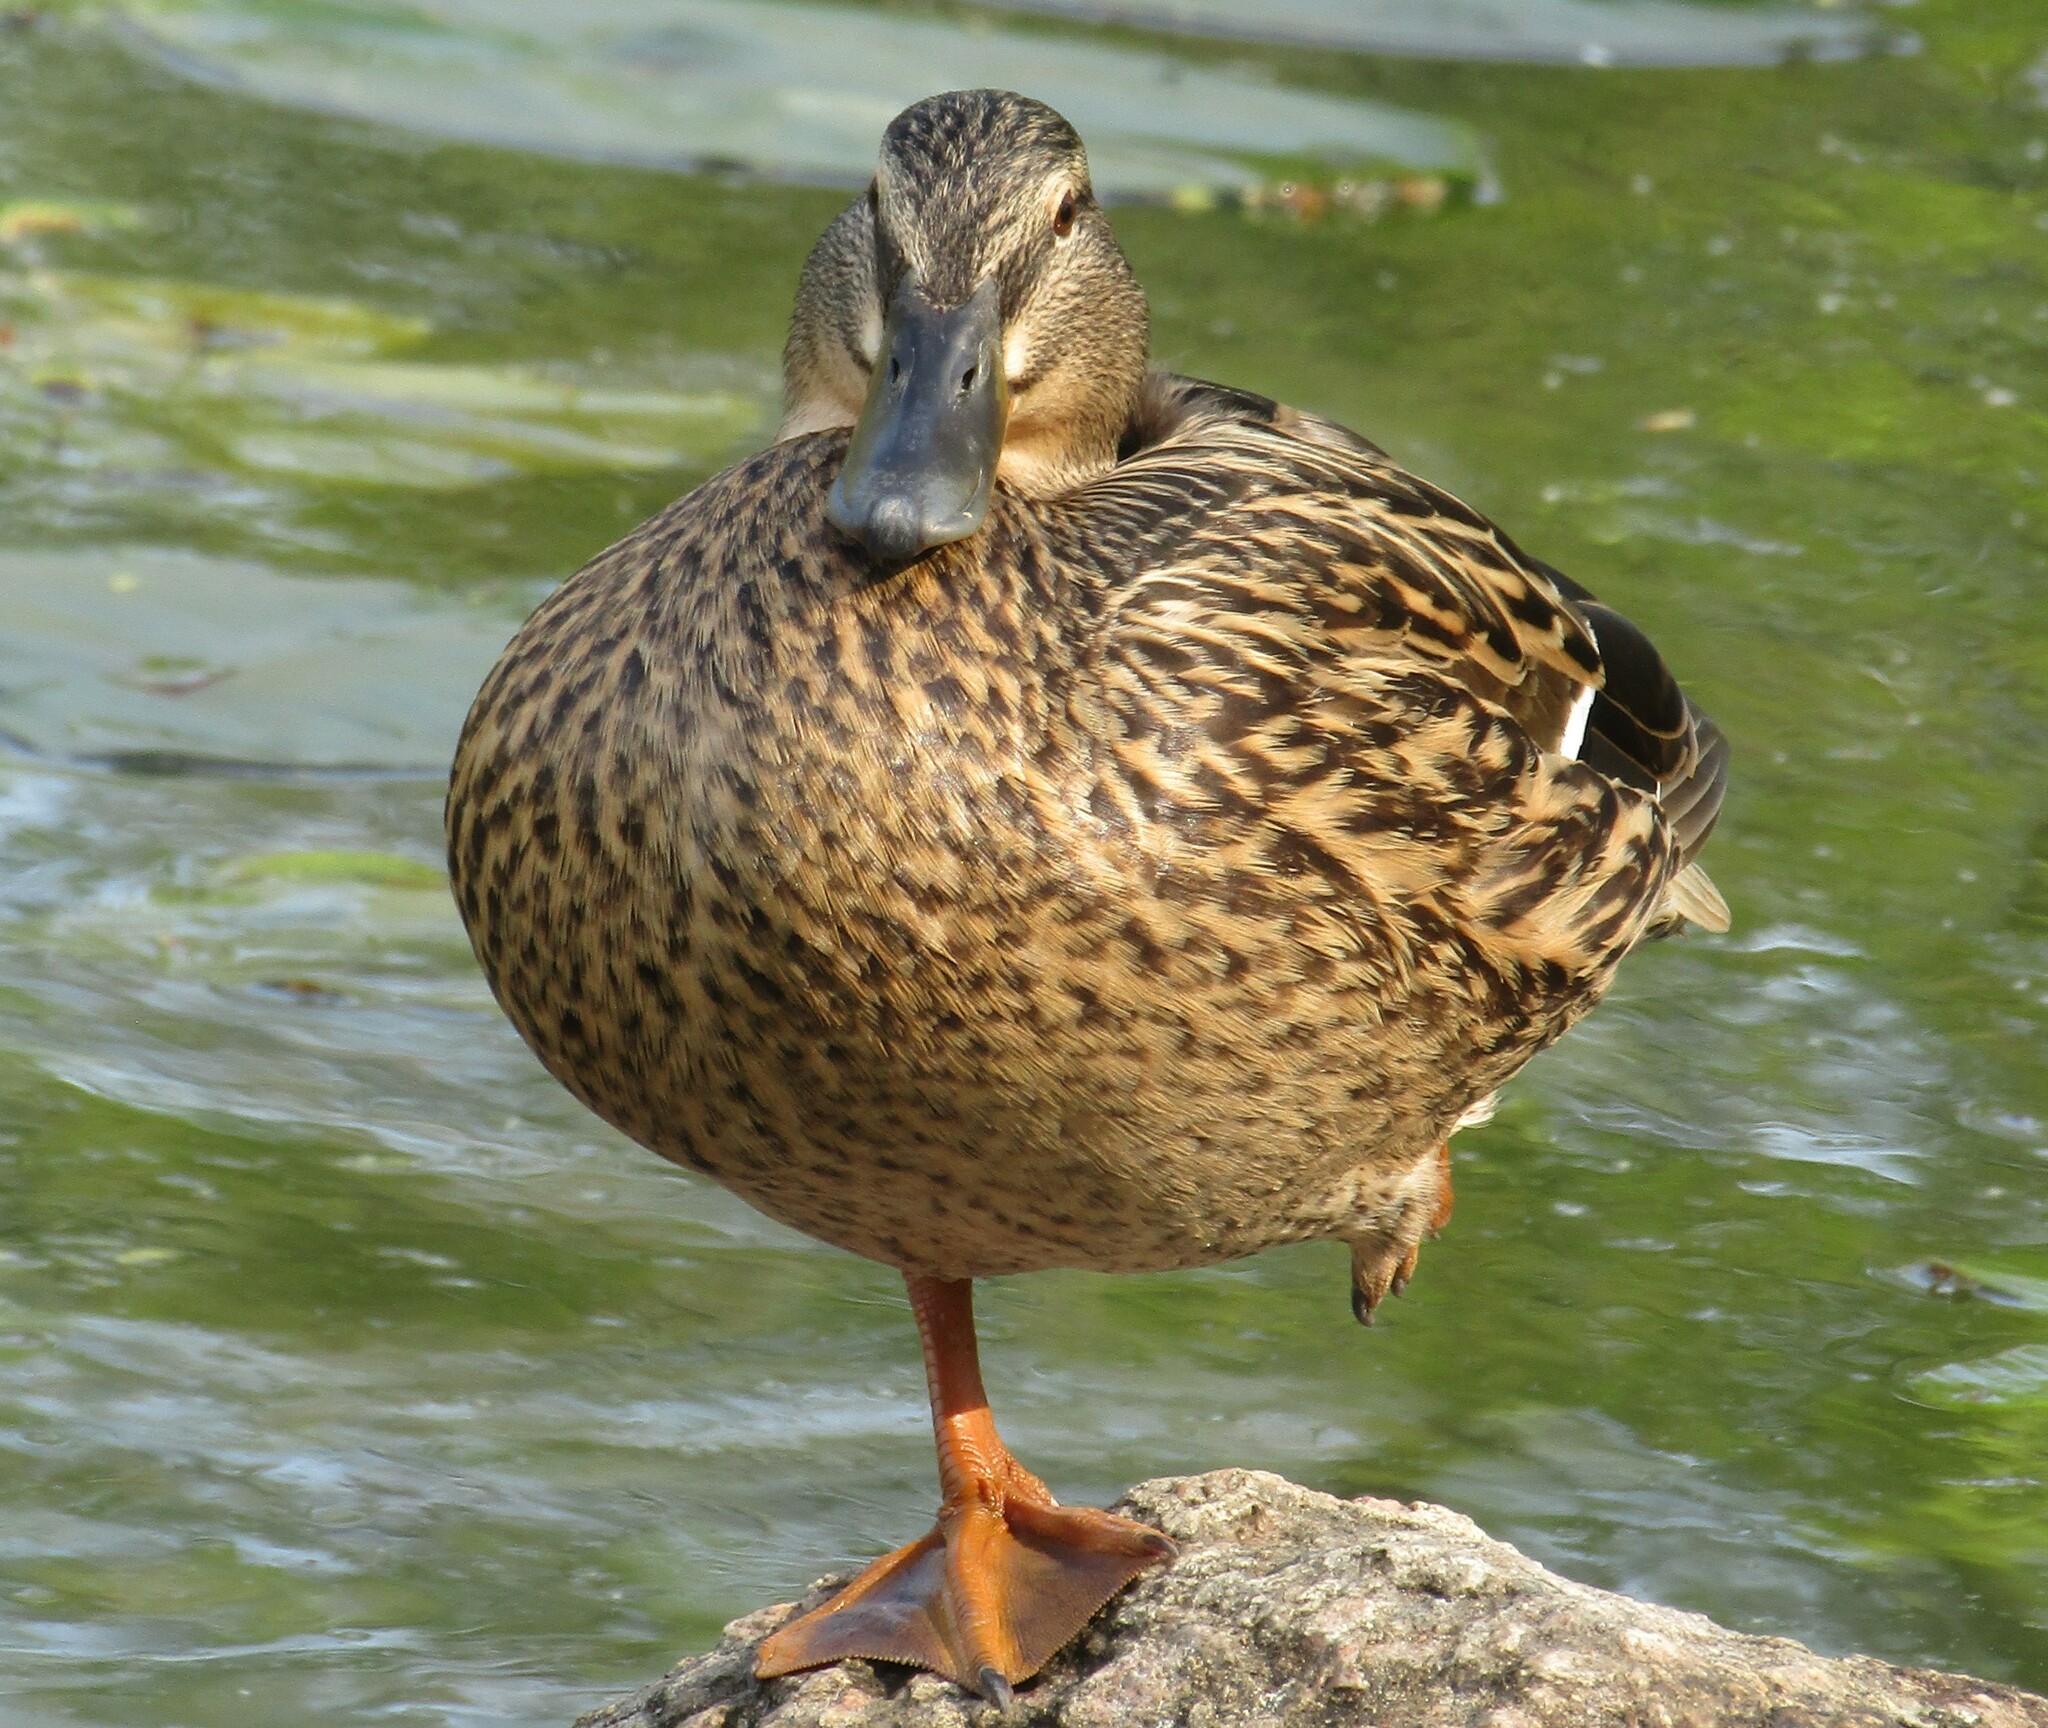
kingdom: Animalia
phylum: Chordata
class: Aves
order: Anseriformes
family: Anatidae
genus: Anas
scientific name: Anas platyrhynchos
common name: Mallard
